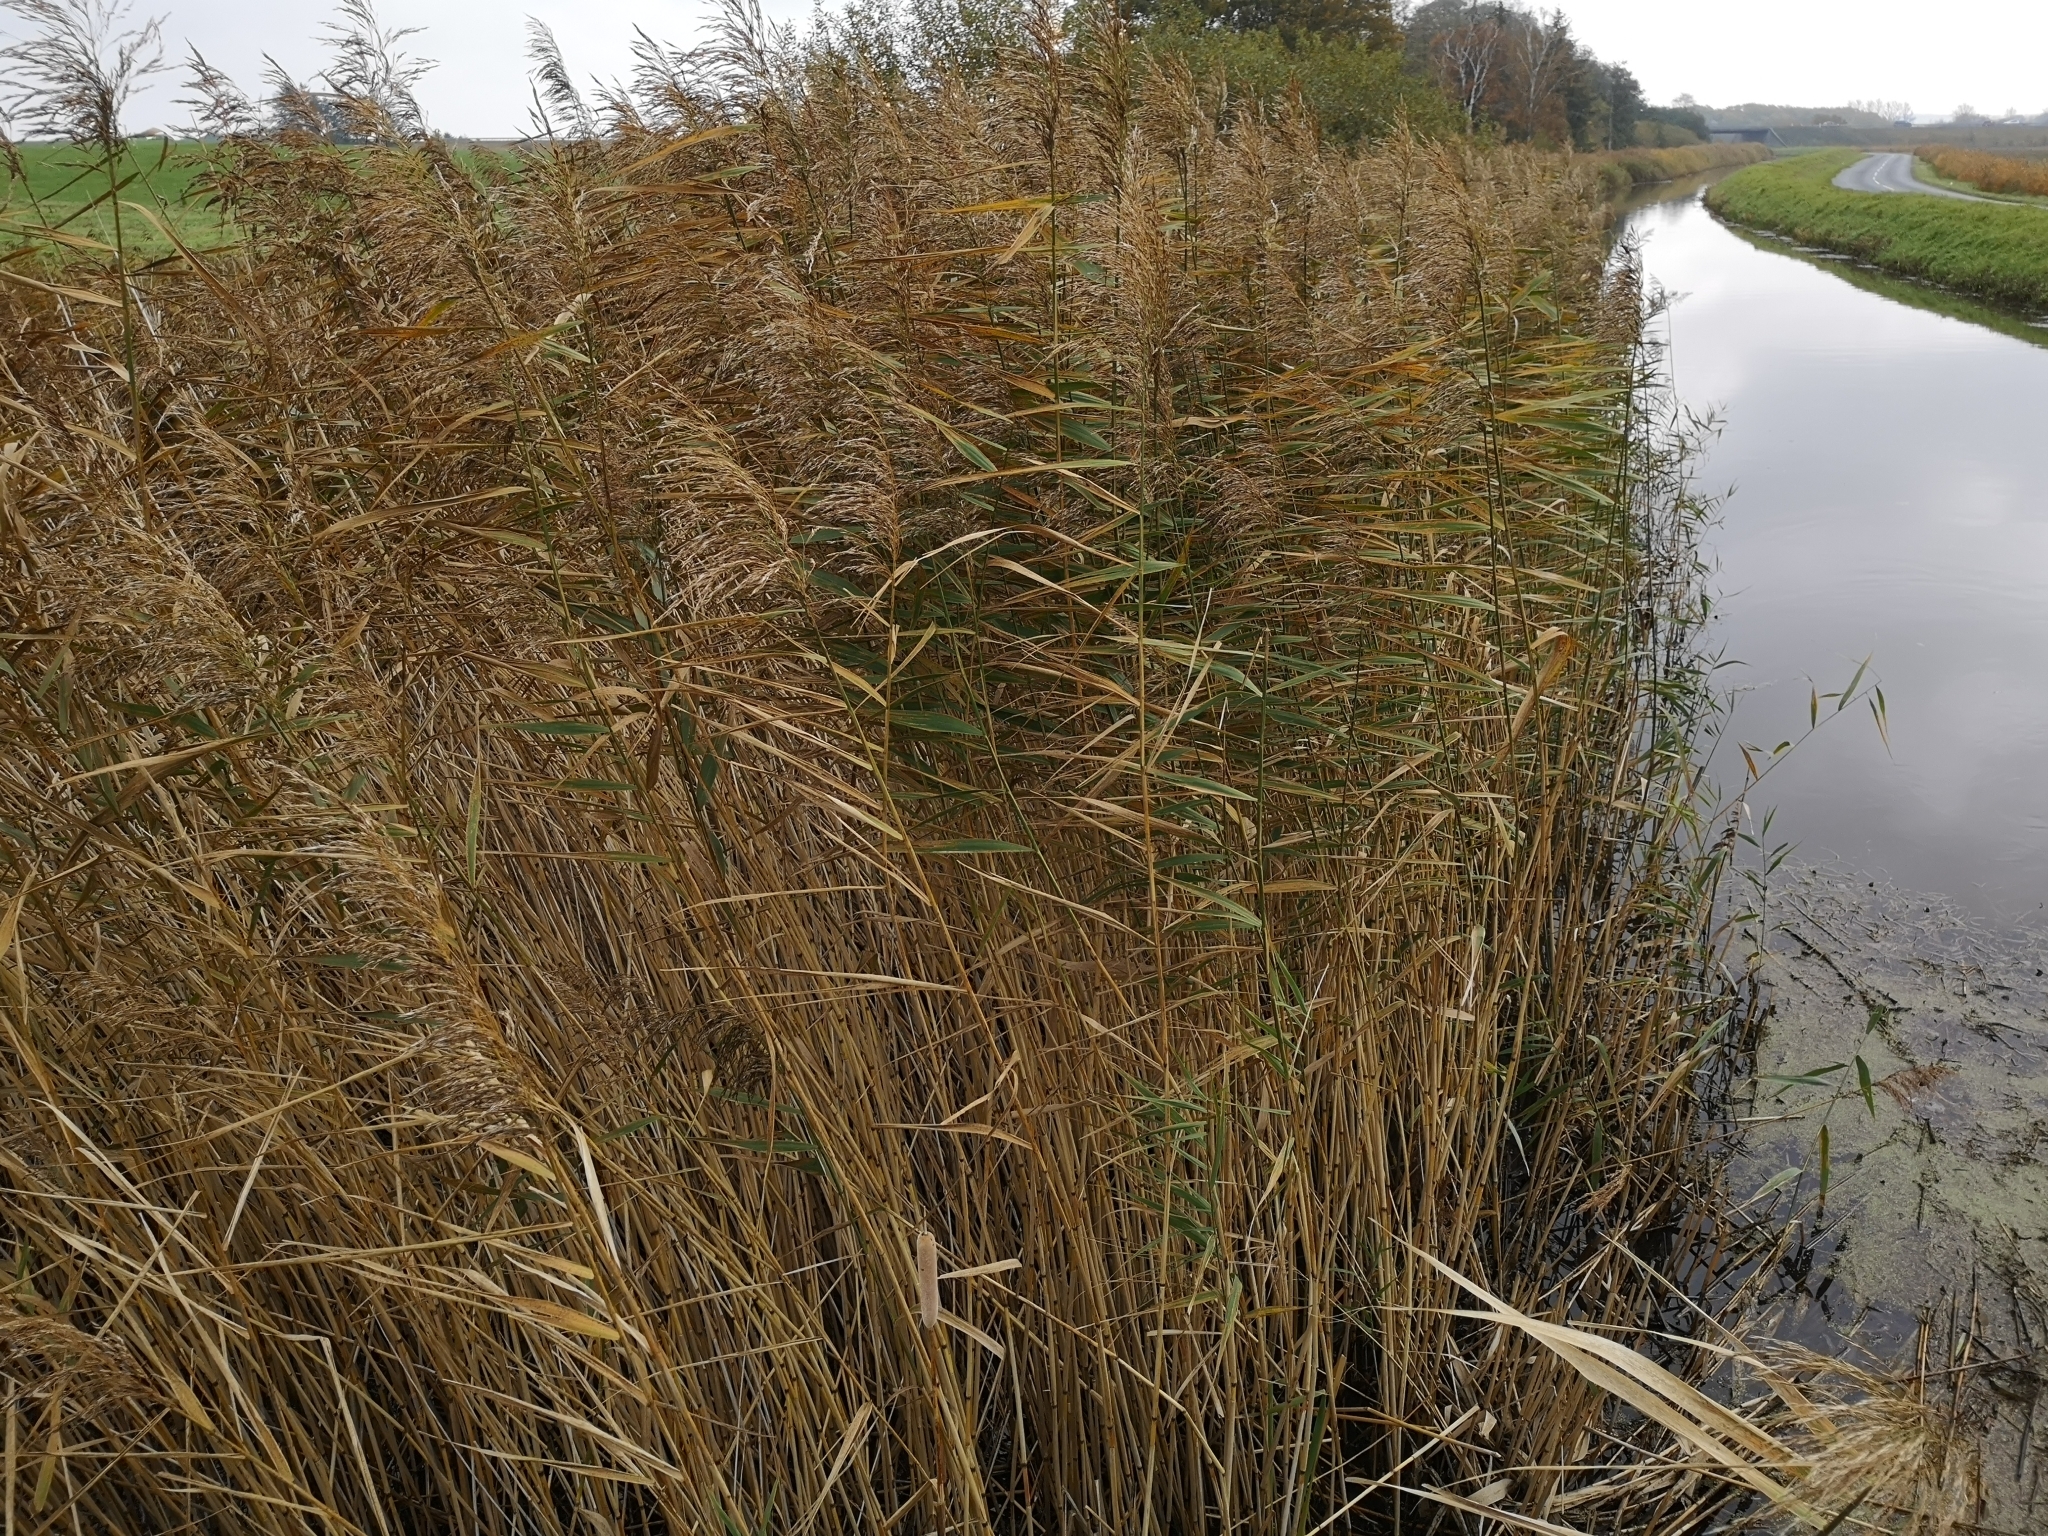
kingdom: Plantae
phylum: Tracheophyta
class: Liliopsida
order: Poales
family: Poaceae
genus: Phragmites
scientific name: Phragmites australis
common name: Common reed
